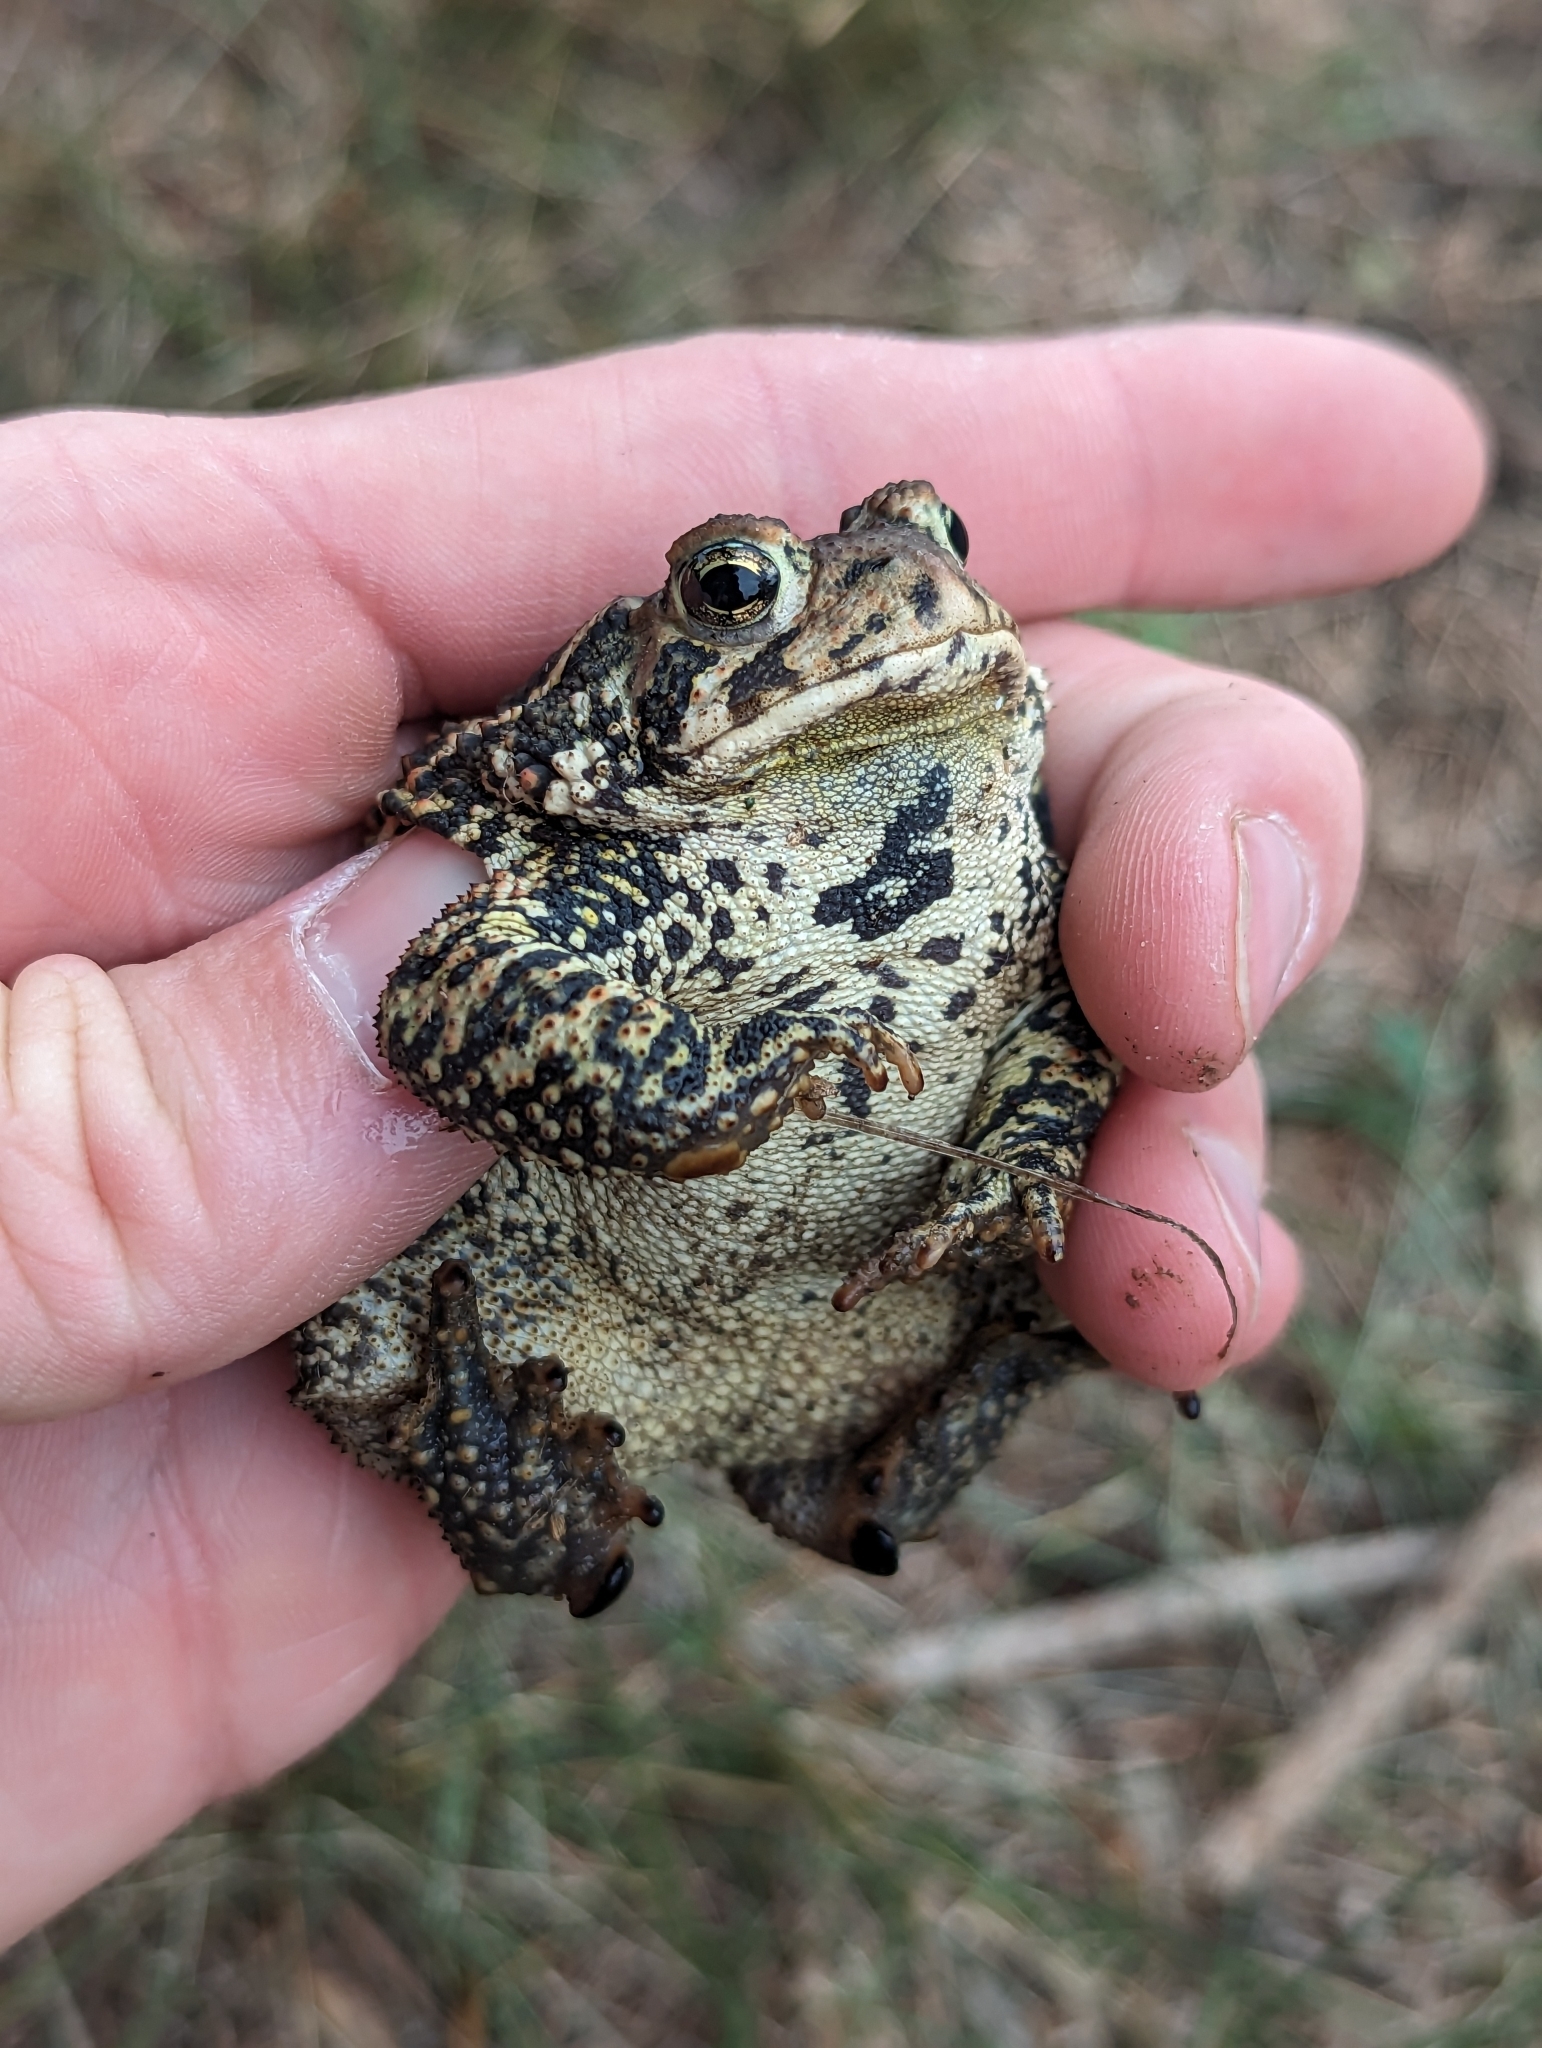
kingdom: Animalia
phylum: Chordata
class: Amphibia
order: Anura
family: Bufonidae
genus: Anaxyrus
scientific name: Anaxyrus americanus
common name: American toad
